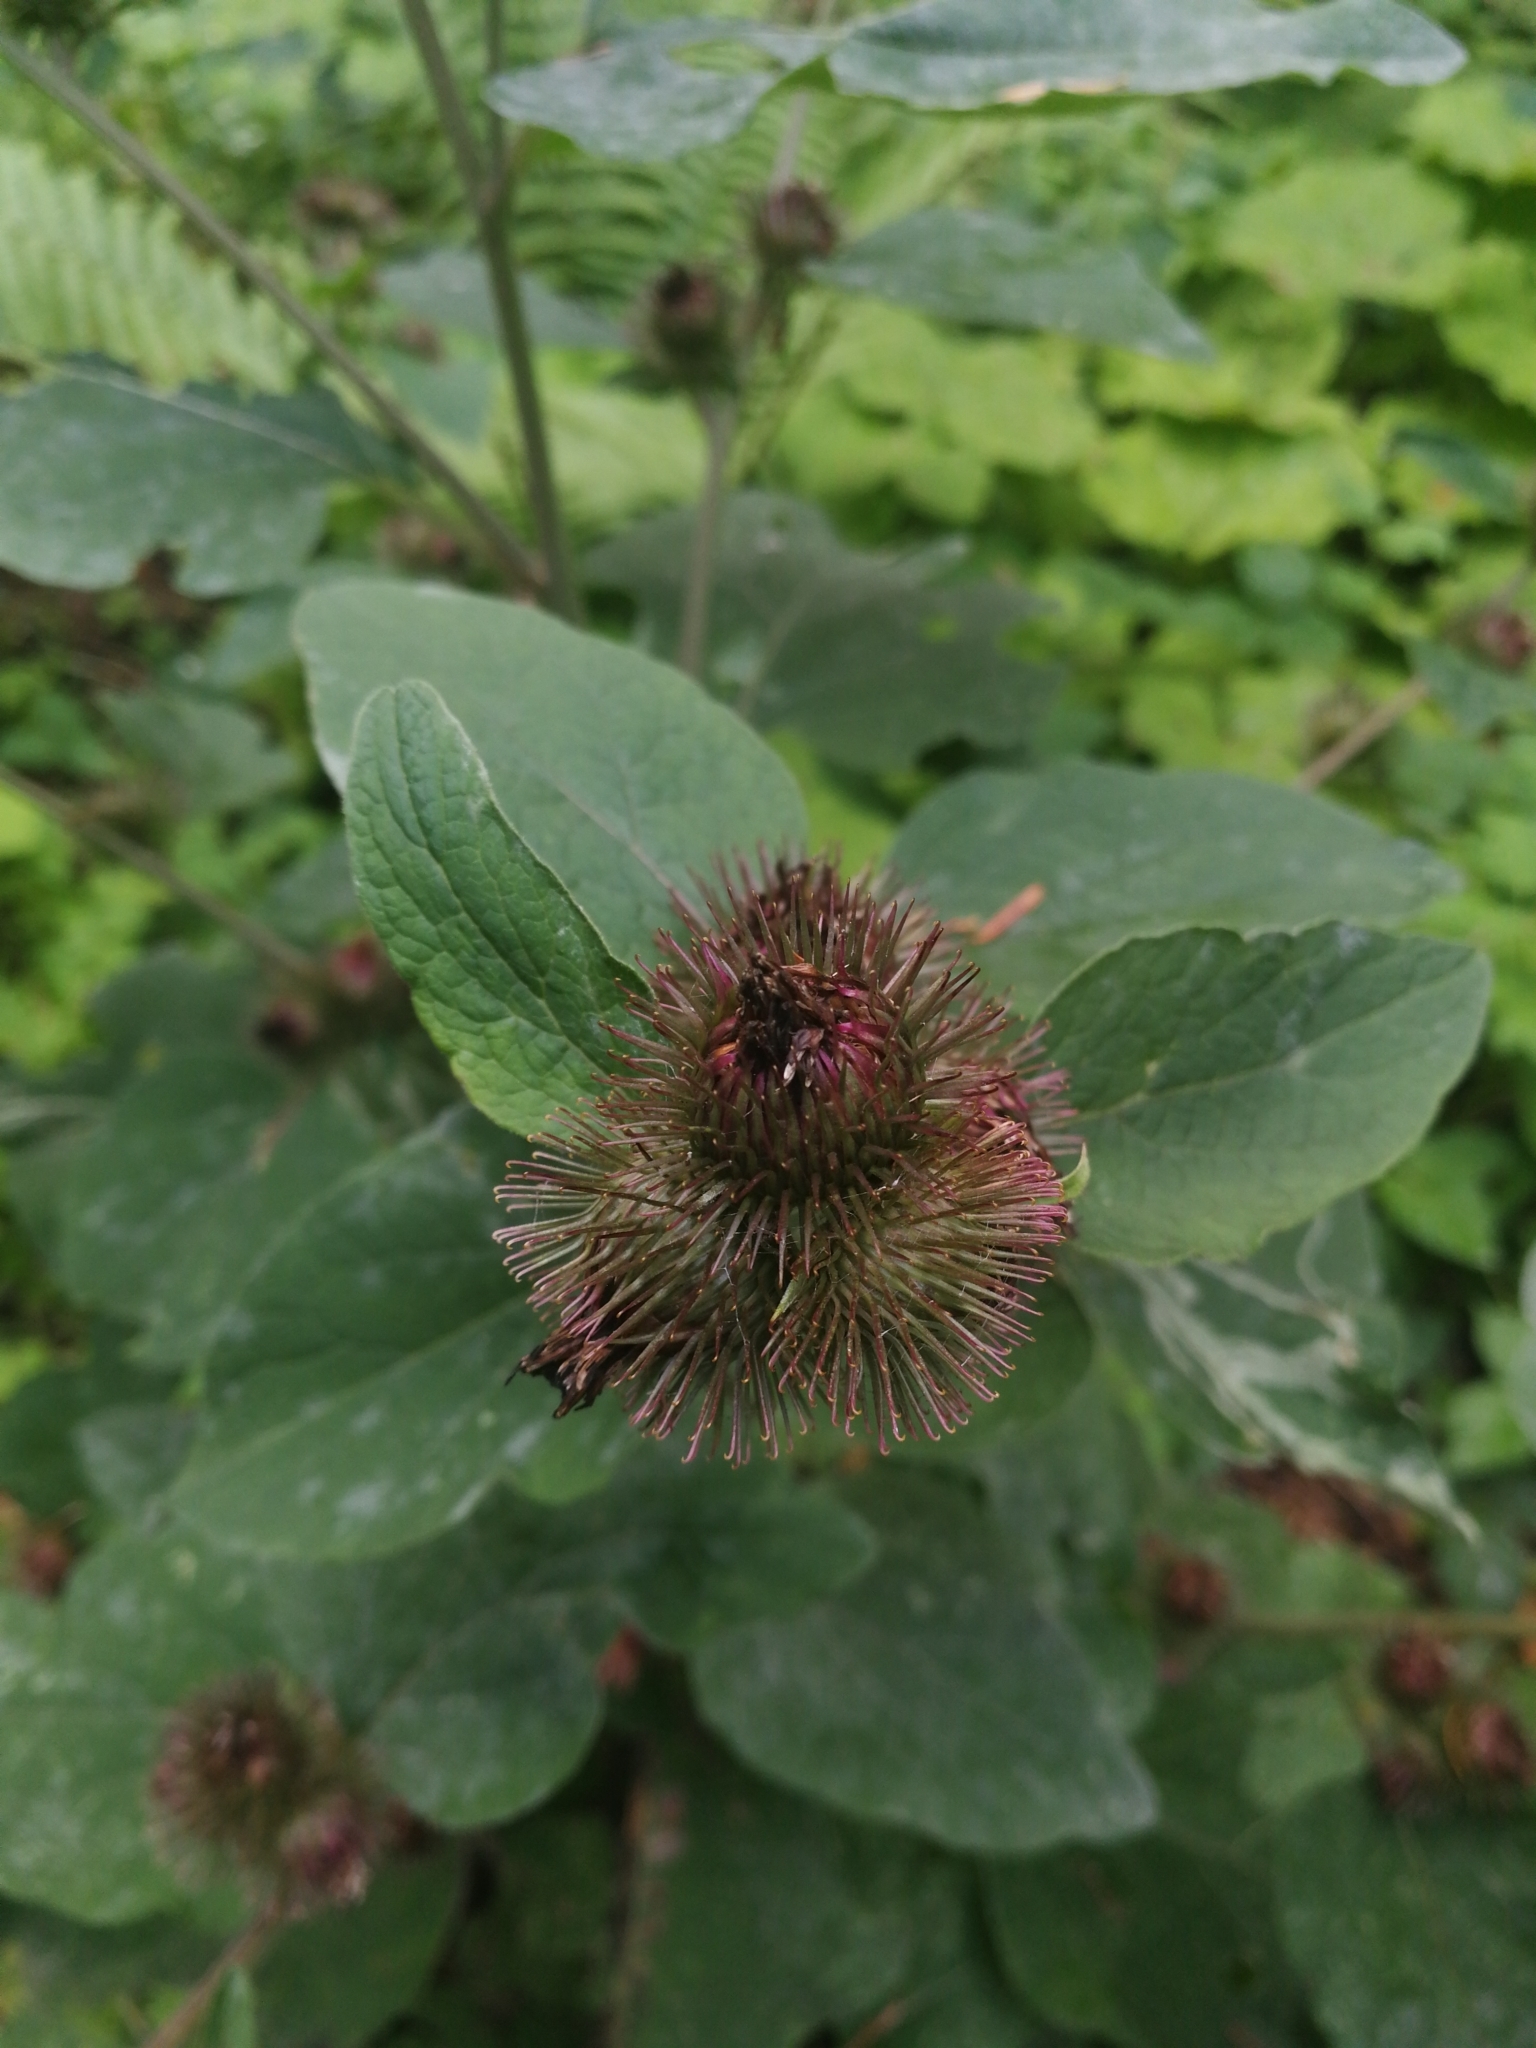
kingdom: Plantae
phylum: Tracheophyta
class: Magnoliopsida
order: Asterales
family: Asteraceae
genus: Arctium
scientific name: Arctium minus
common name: Lesser burdock
